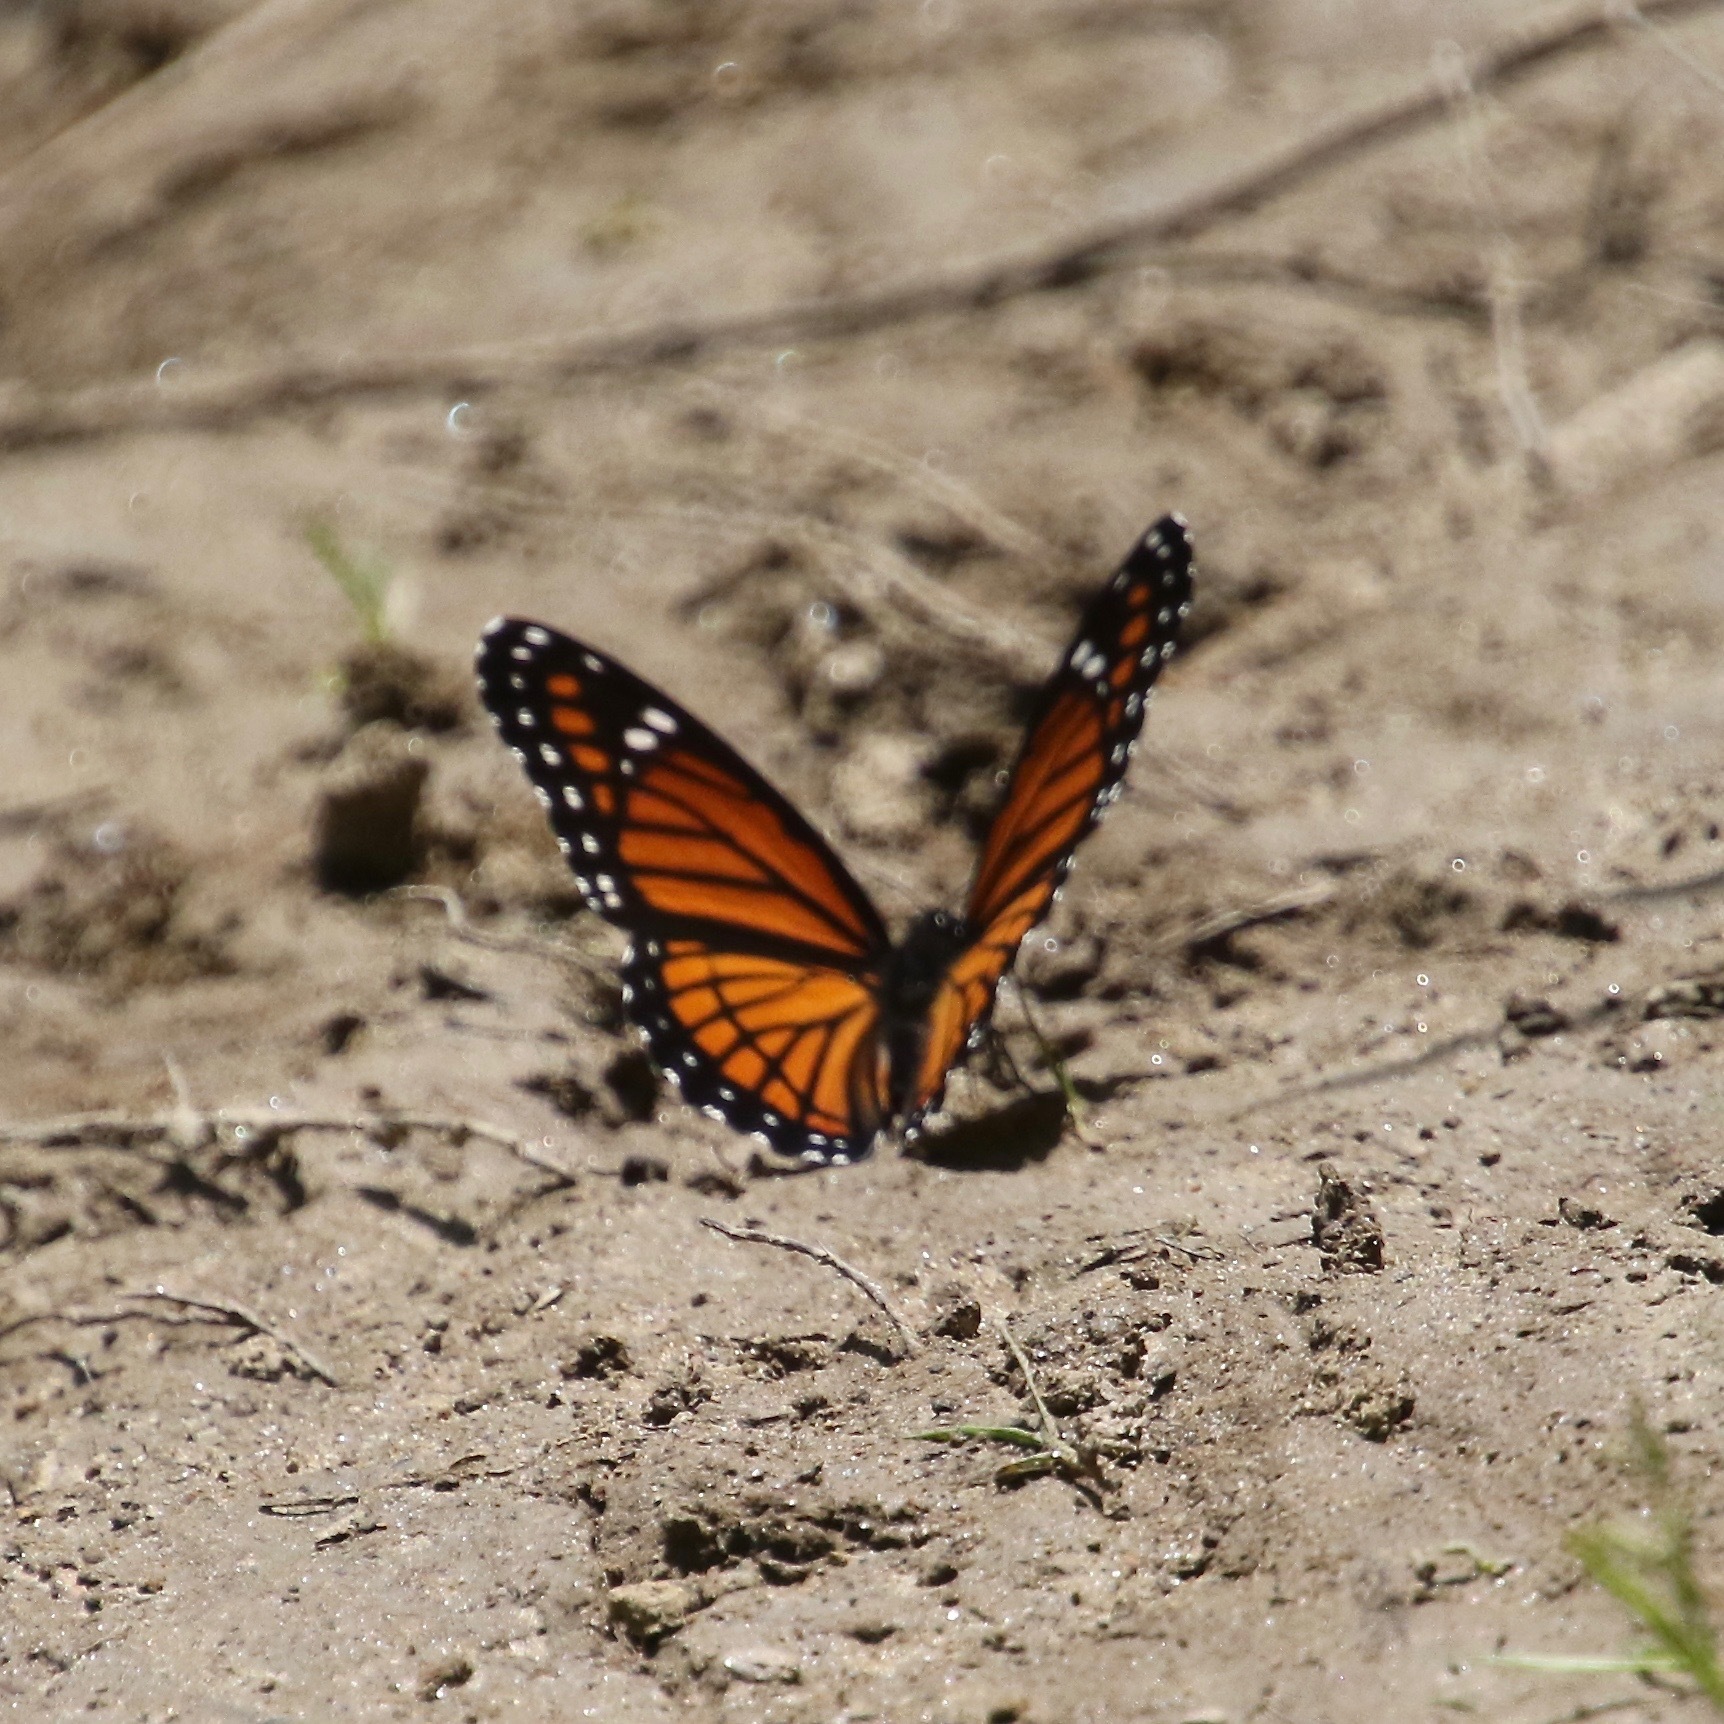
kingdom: Animalia
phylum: Arthropoda
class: Insecta
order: Lepidoptera
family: Nymphalidae
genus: Limenitis
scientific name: Limenitis archippus
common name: Viceroy
